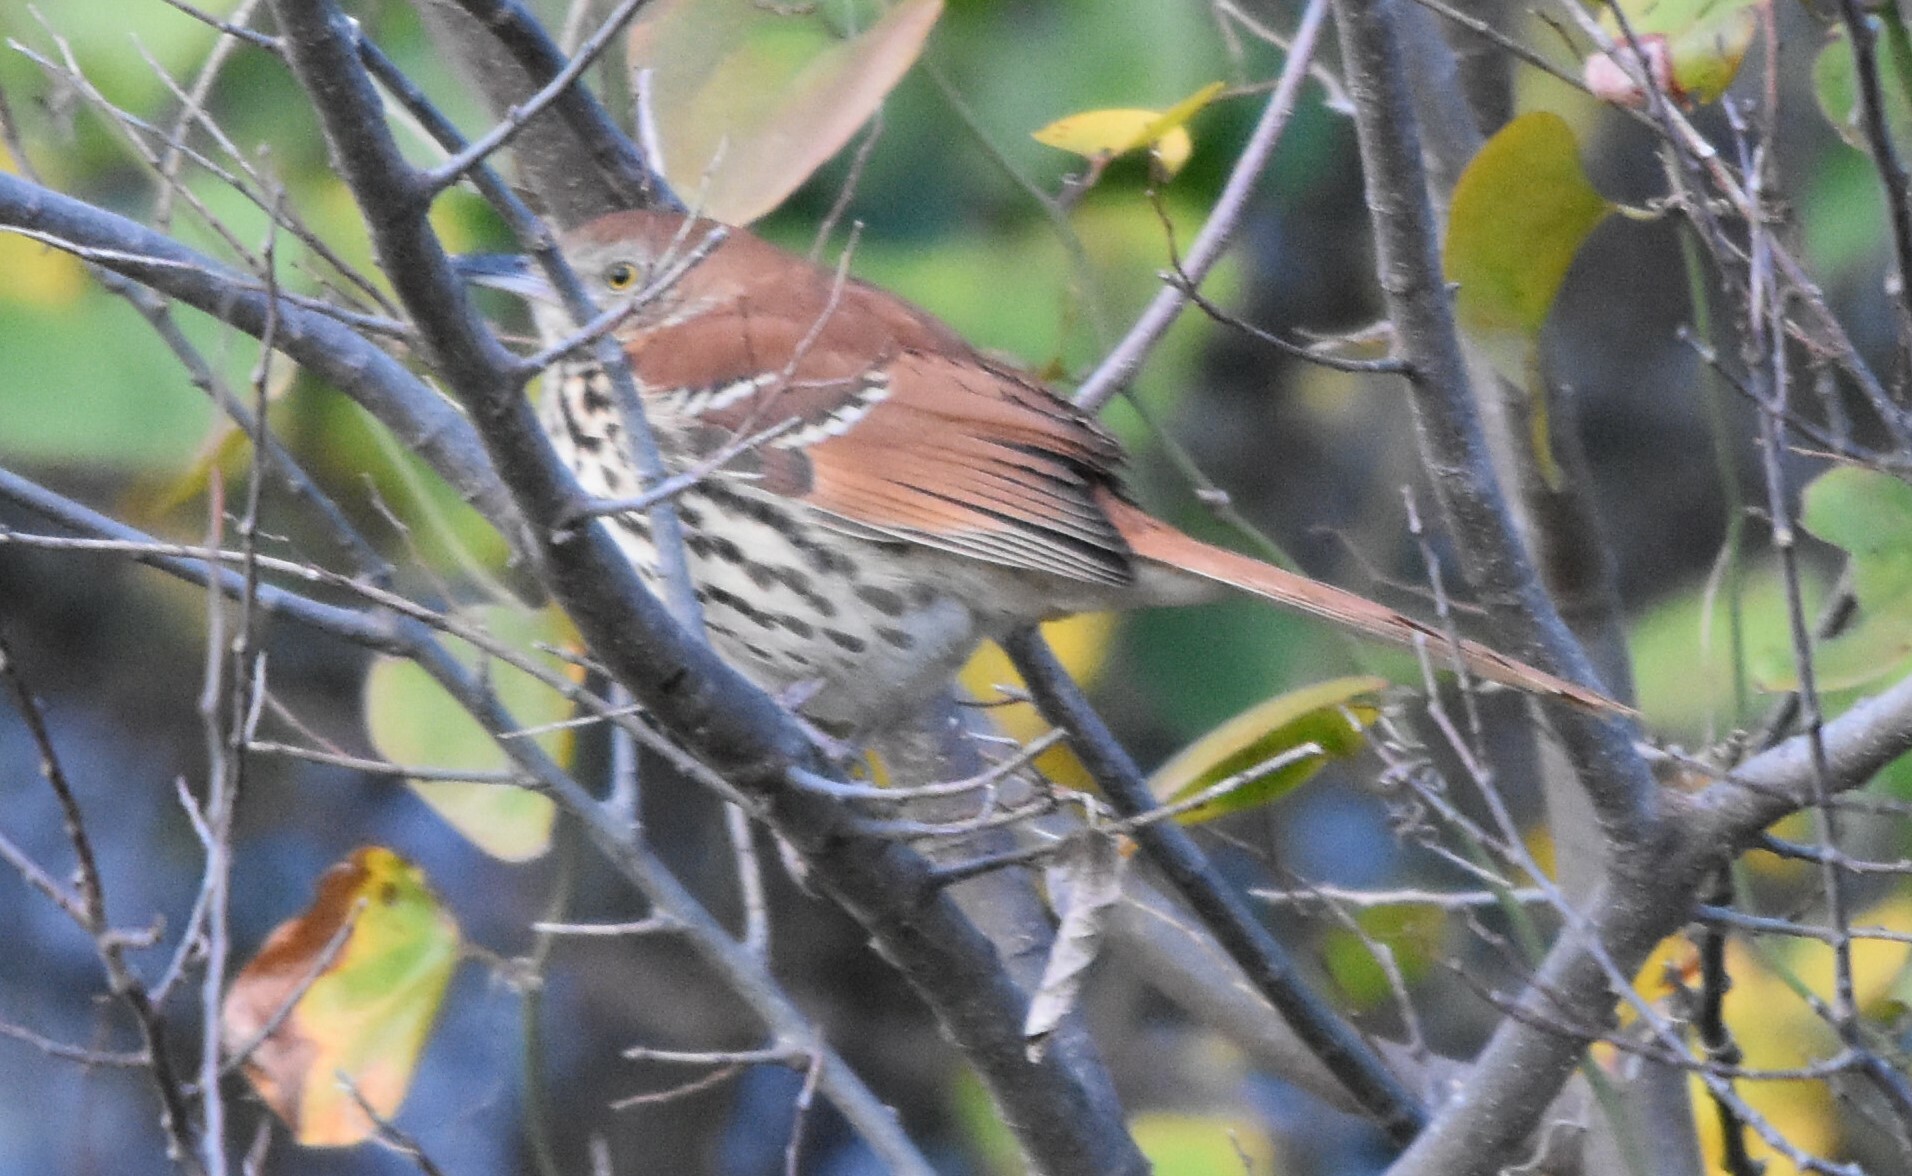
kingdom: Animalia
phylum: Chordata
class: Aves
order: Passeriformes
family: Mimidae
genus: Toxostoma
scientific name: Toxostoma rufum
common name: Brown thrasher
